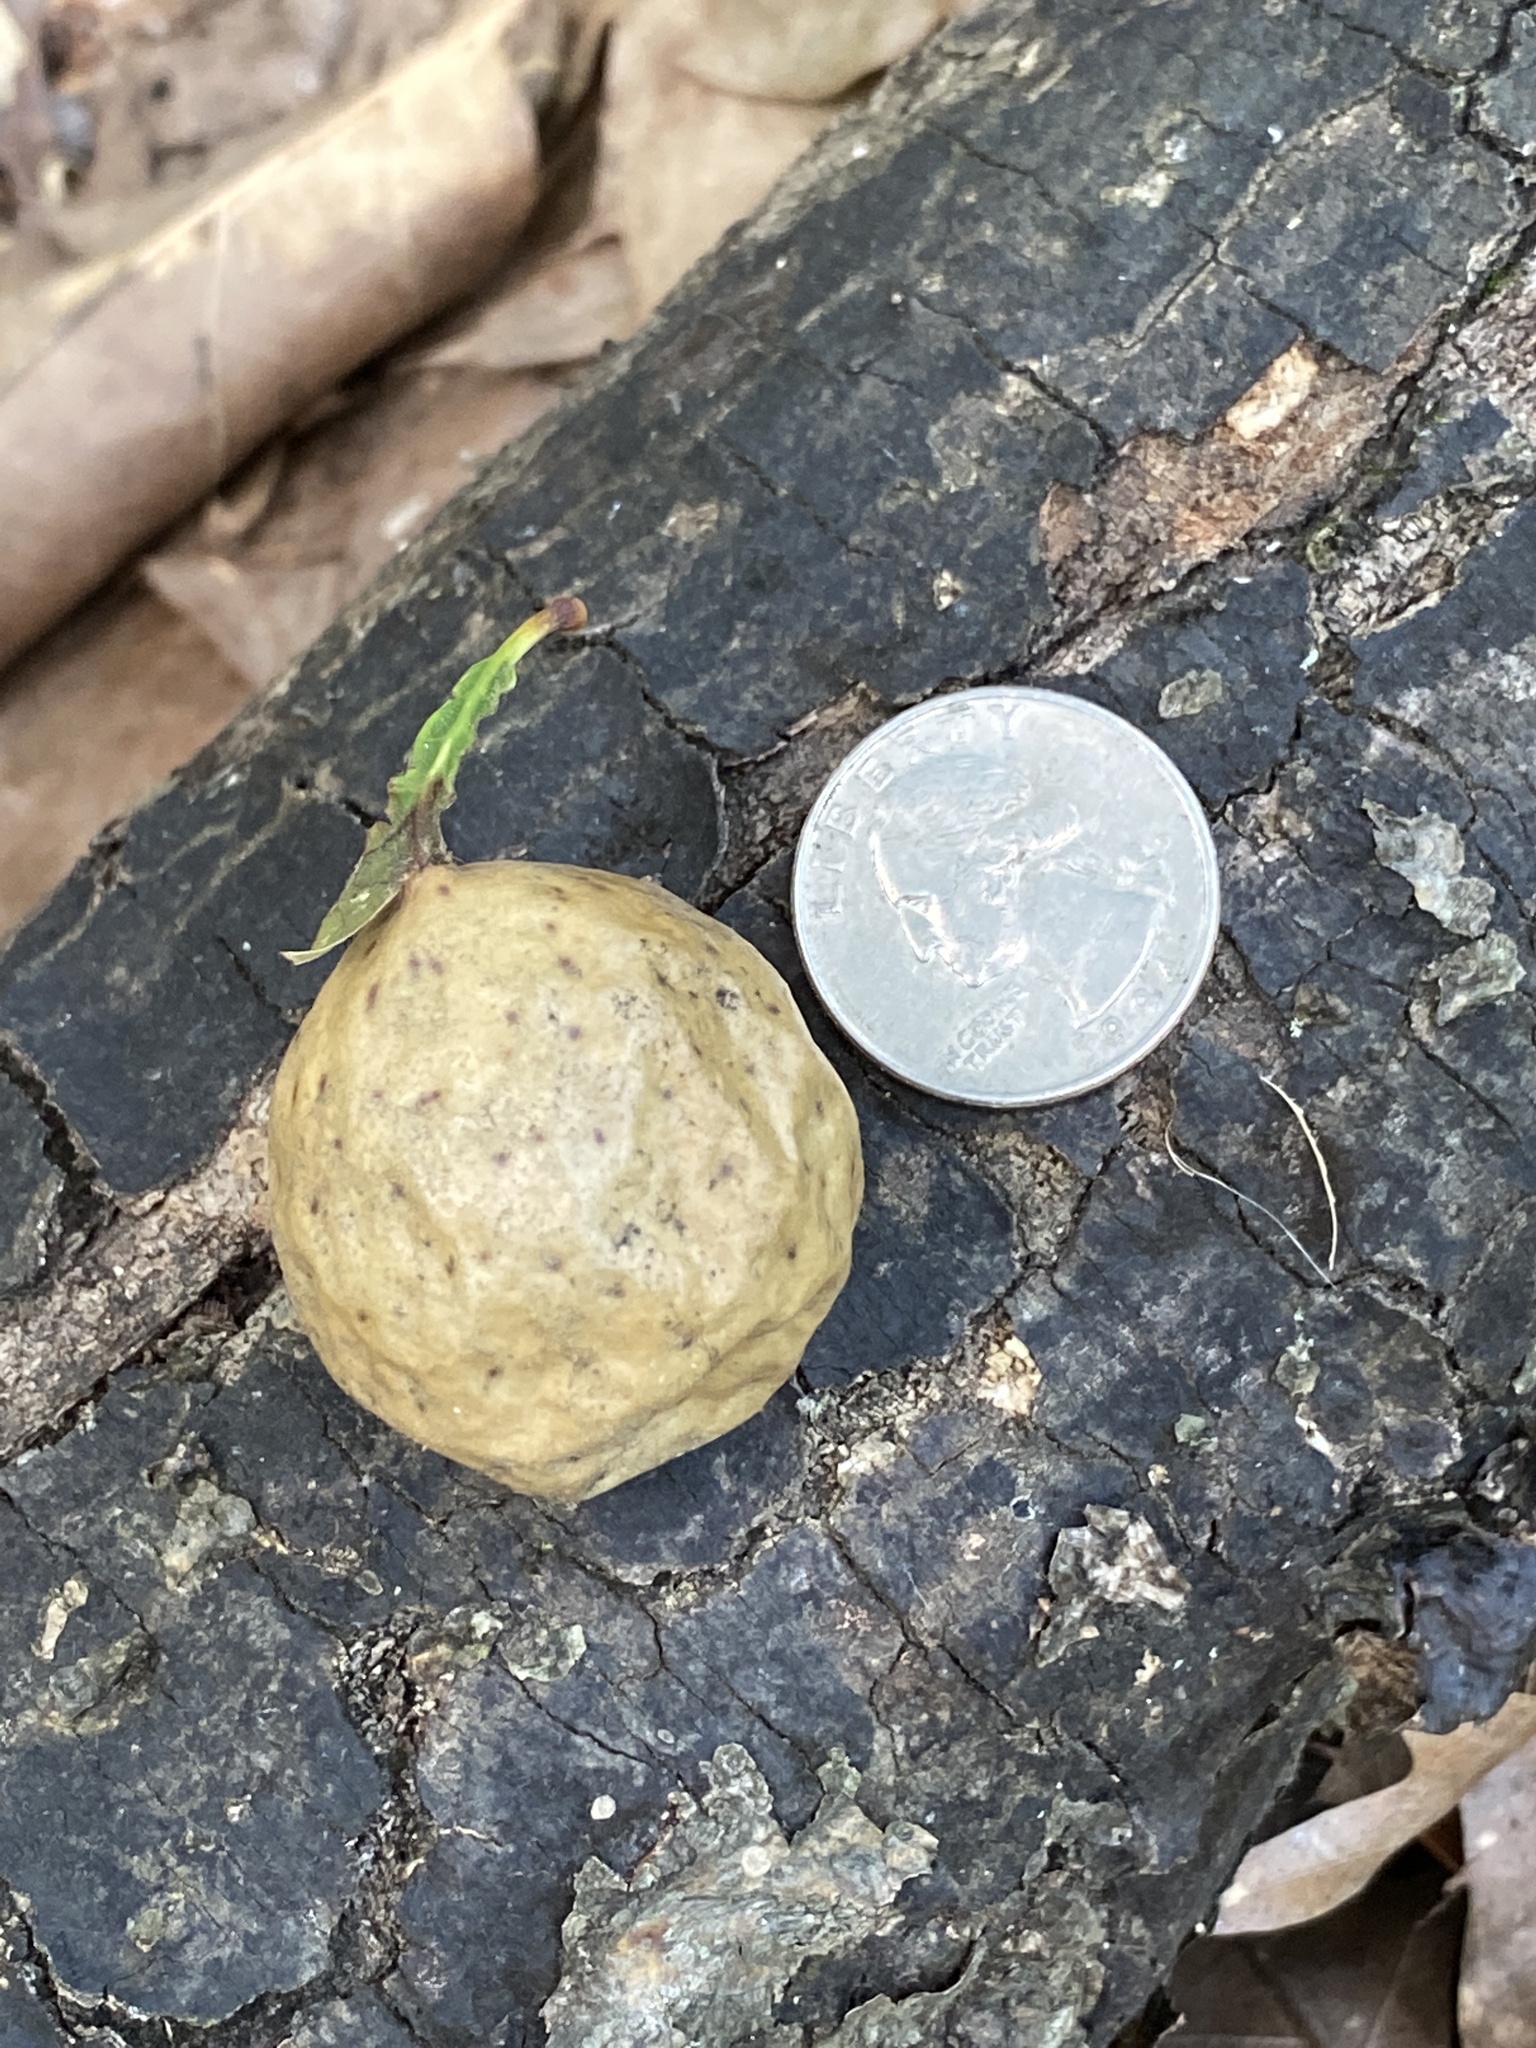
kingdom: Animalia
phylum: Arthropoda
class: Insecta
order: Hymenoptera
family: Cynipidae
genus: Amphibolips
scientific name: Amphibolips
